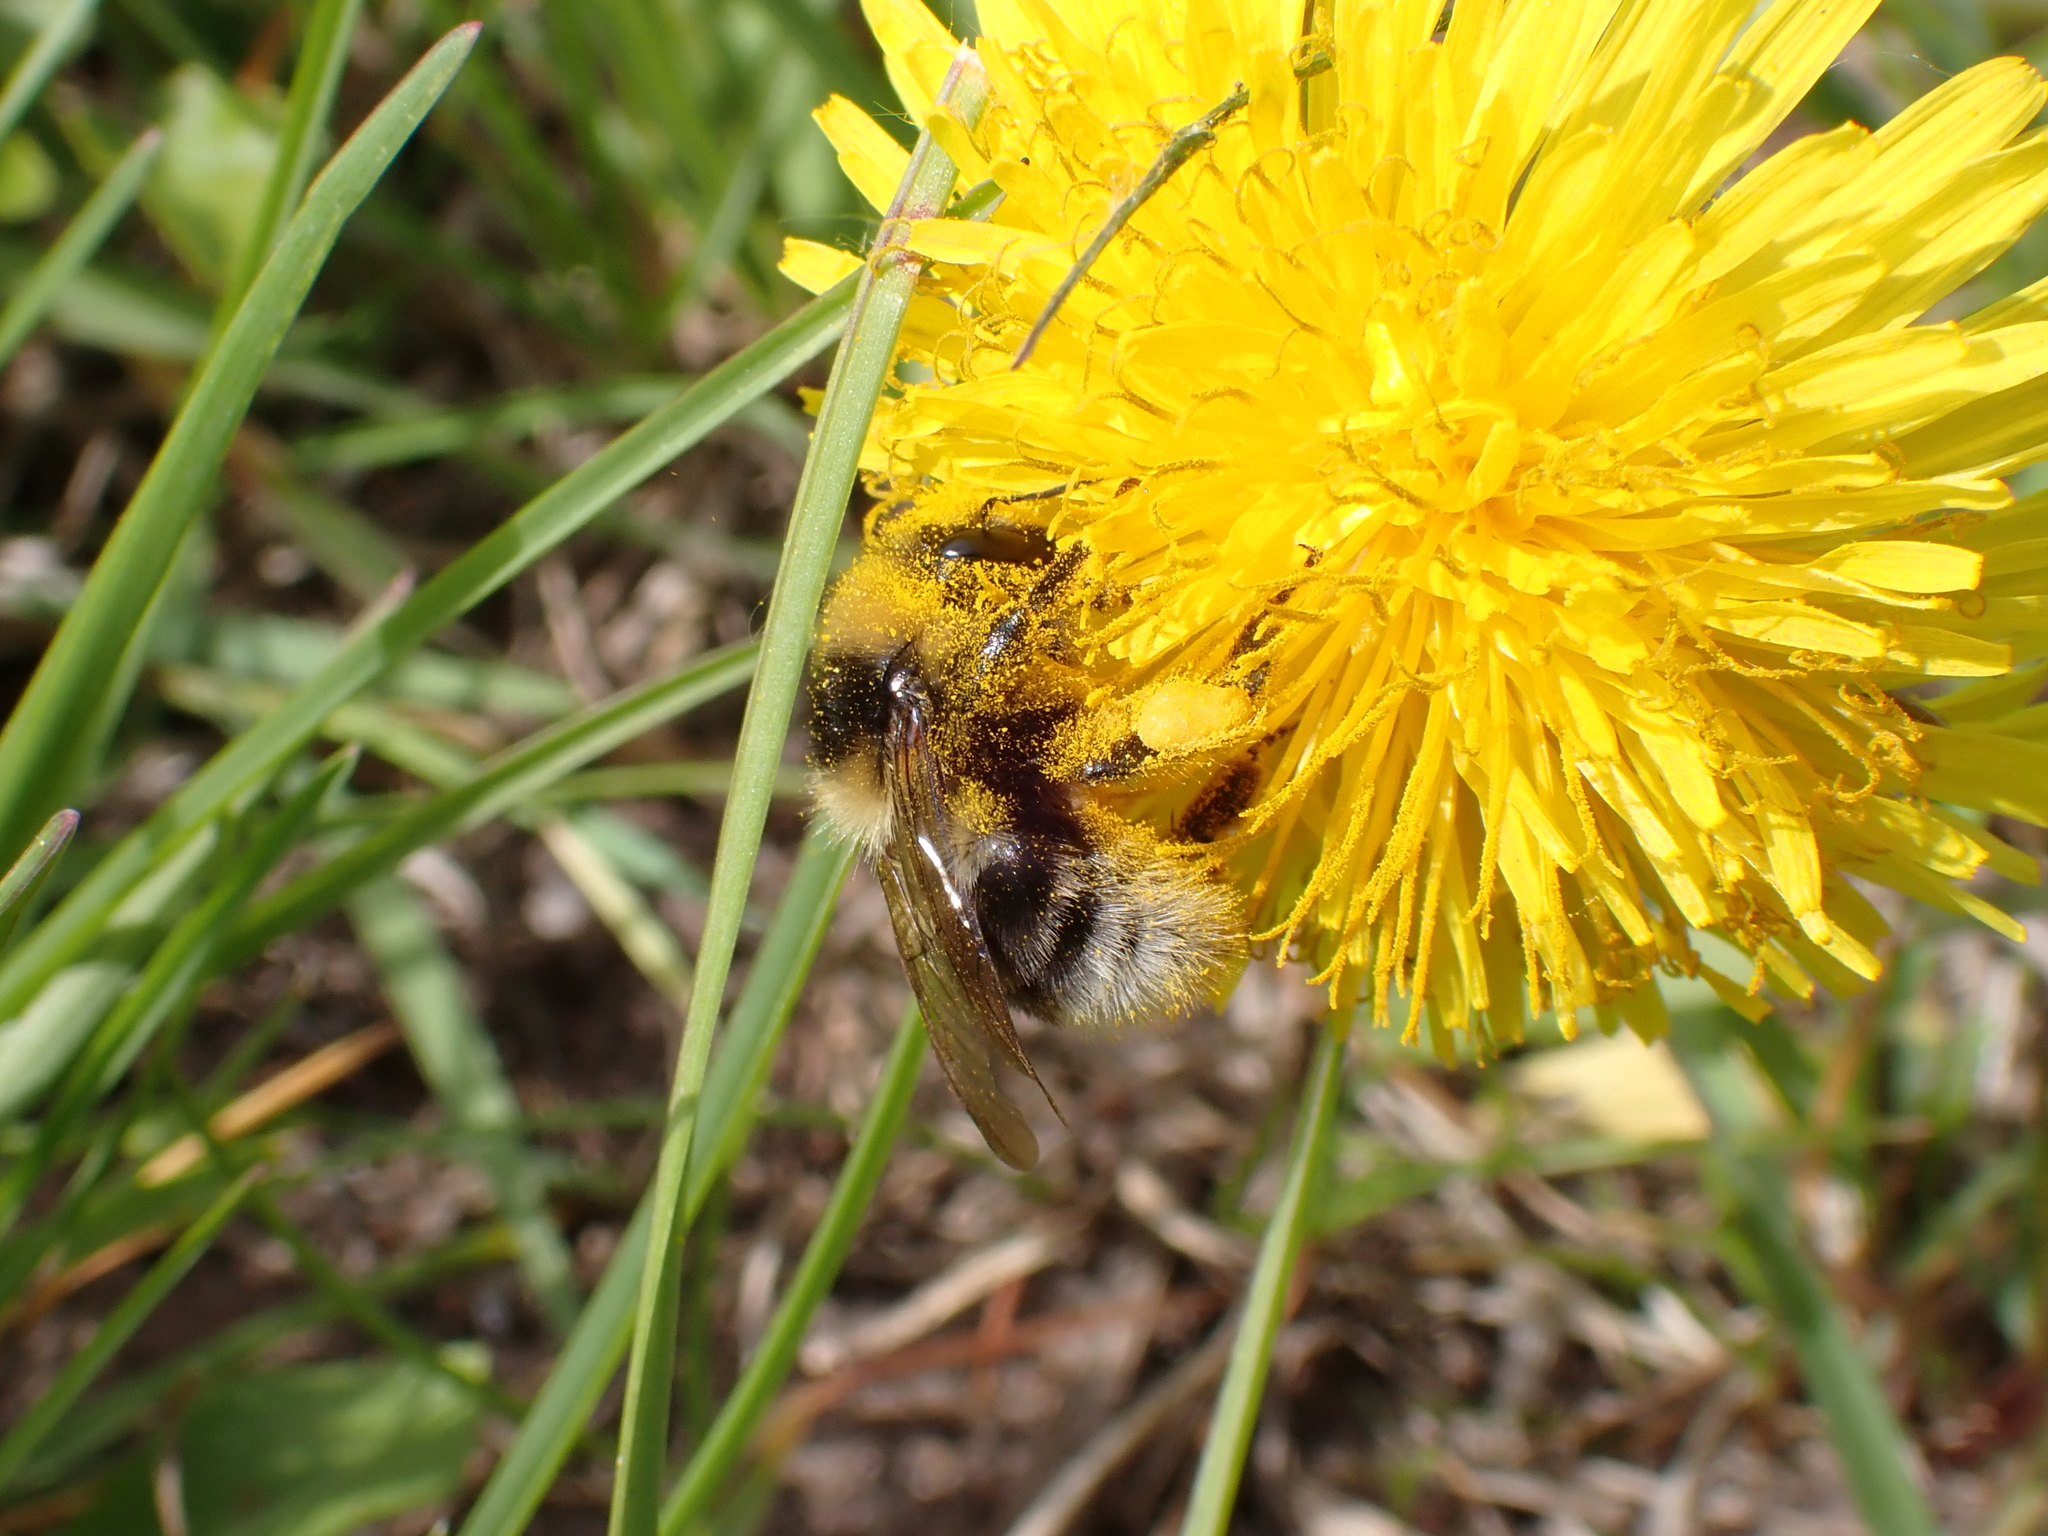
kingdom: Animalia
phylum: Arthropoda
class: Insecta
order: Hymenoptera
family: Apidae
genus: Bombus
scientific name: Bombus semenoviellus
